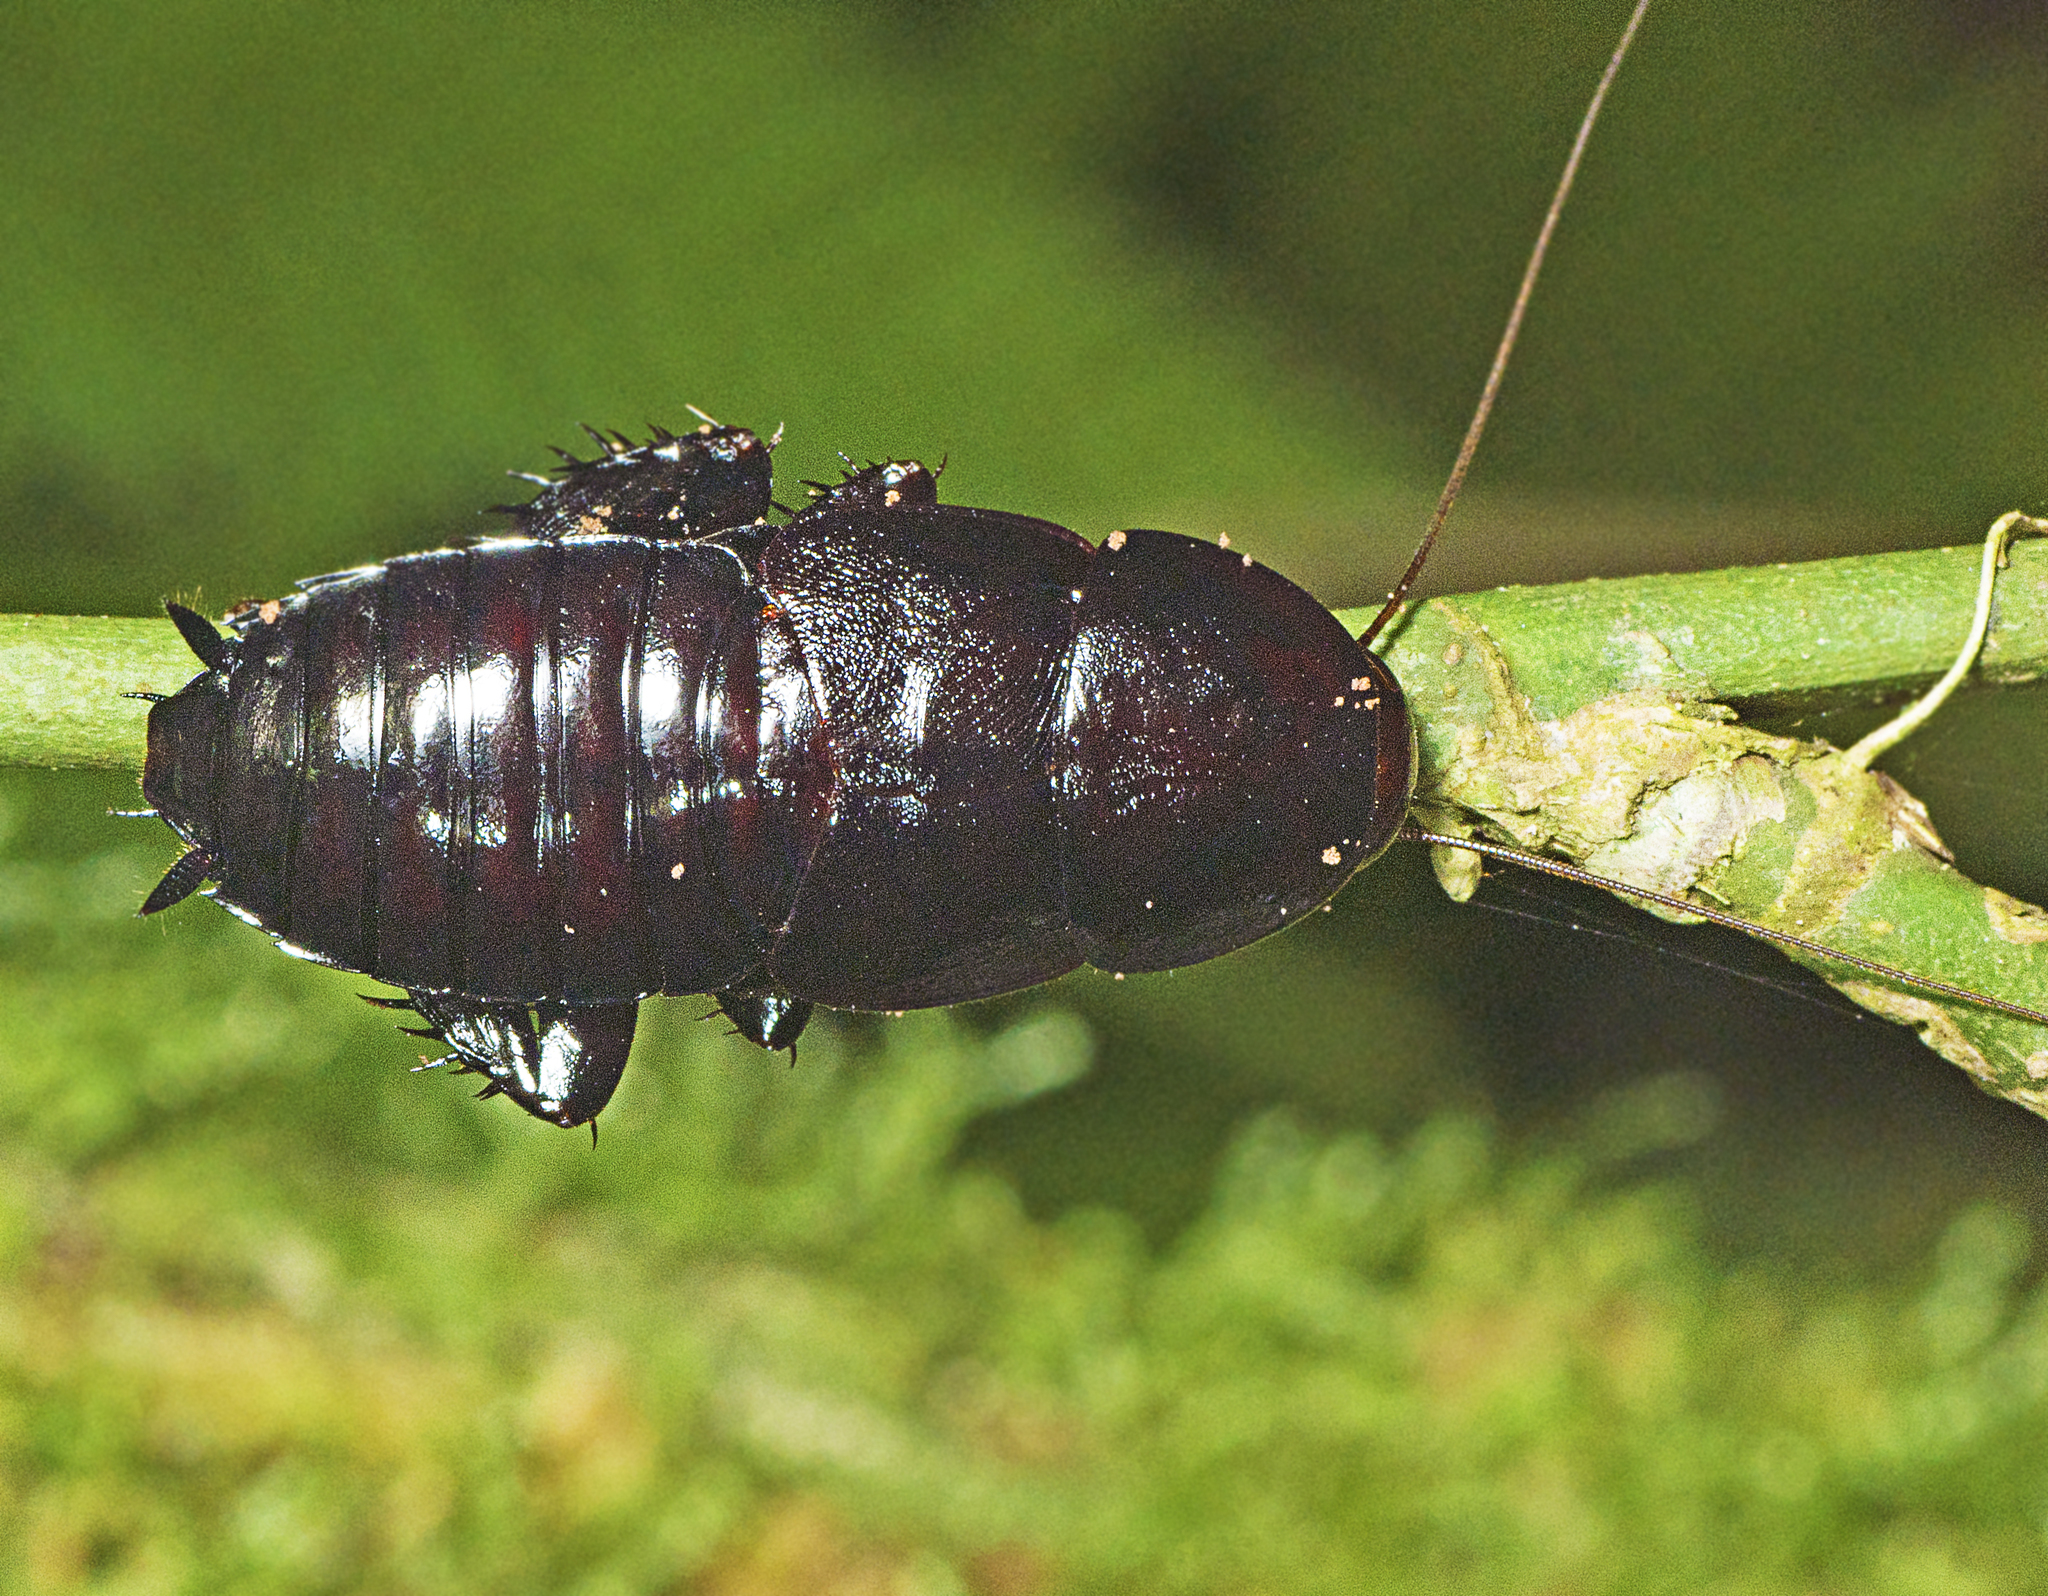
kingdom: Animalia
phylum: Arthropoda
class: Insecta
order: Blattodea
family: Blattidae
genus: Scabina
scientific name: Scabina antipoda
